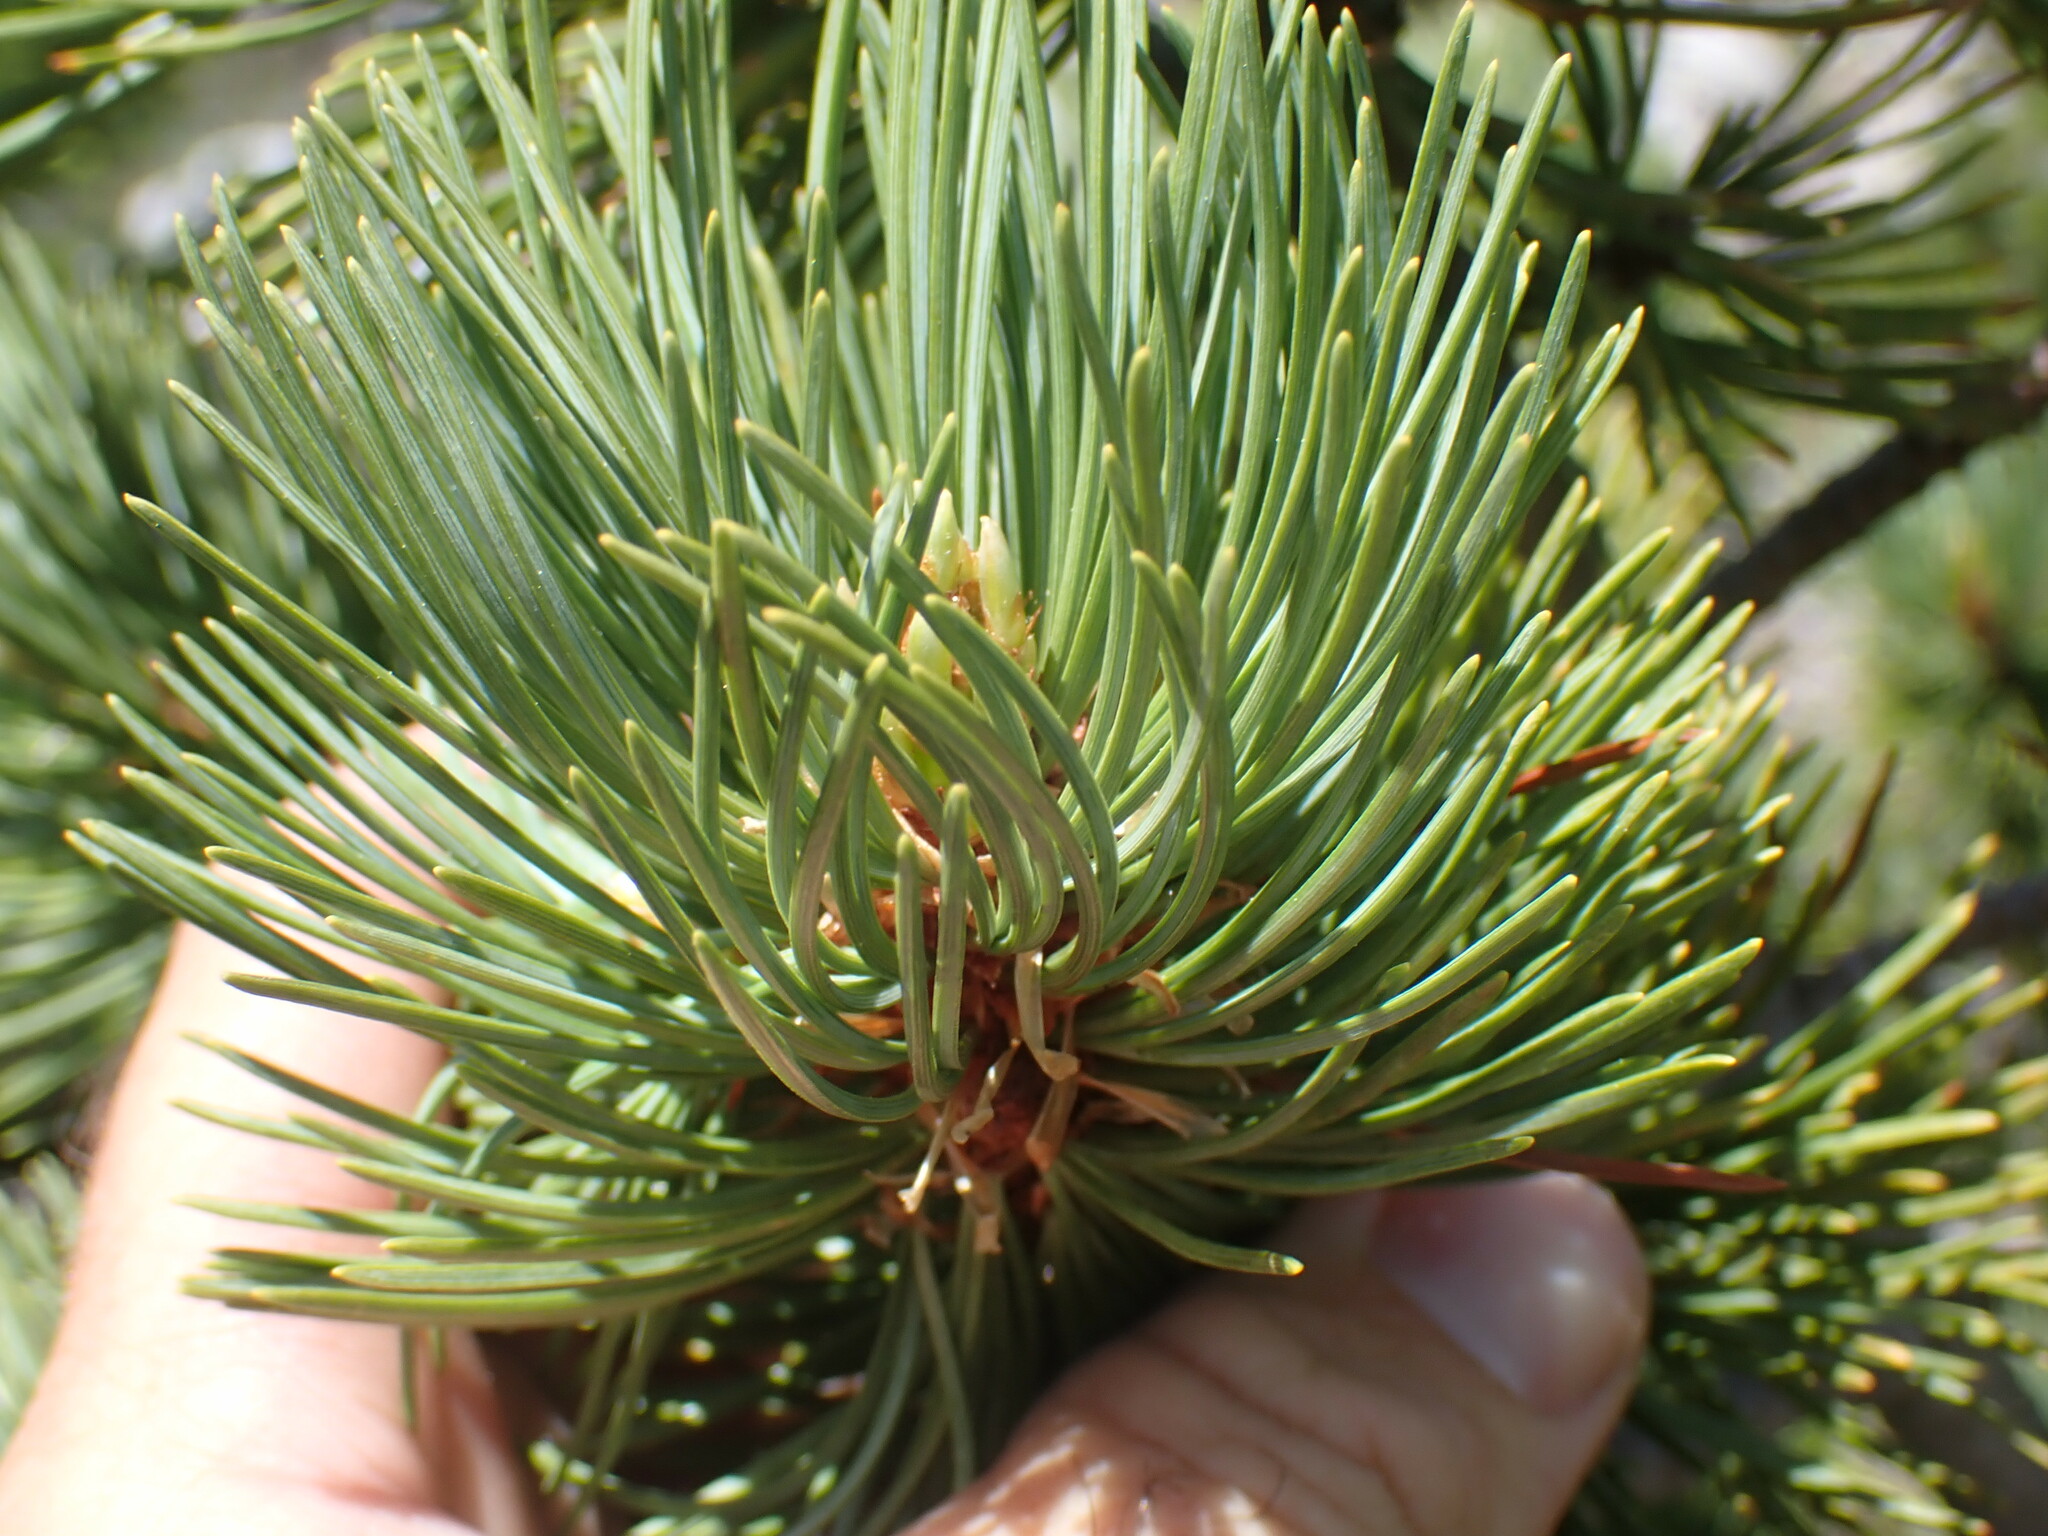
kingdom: Plantae
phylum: Tracheophyta
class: Pinopsida
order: Pinales
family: Pinaceae
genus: Pinus
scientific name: Pinus albicaulis
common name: Whitebark pine
